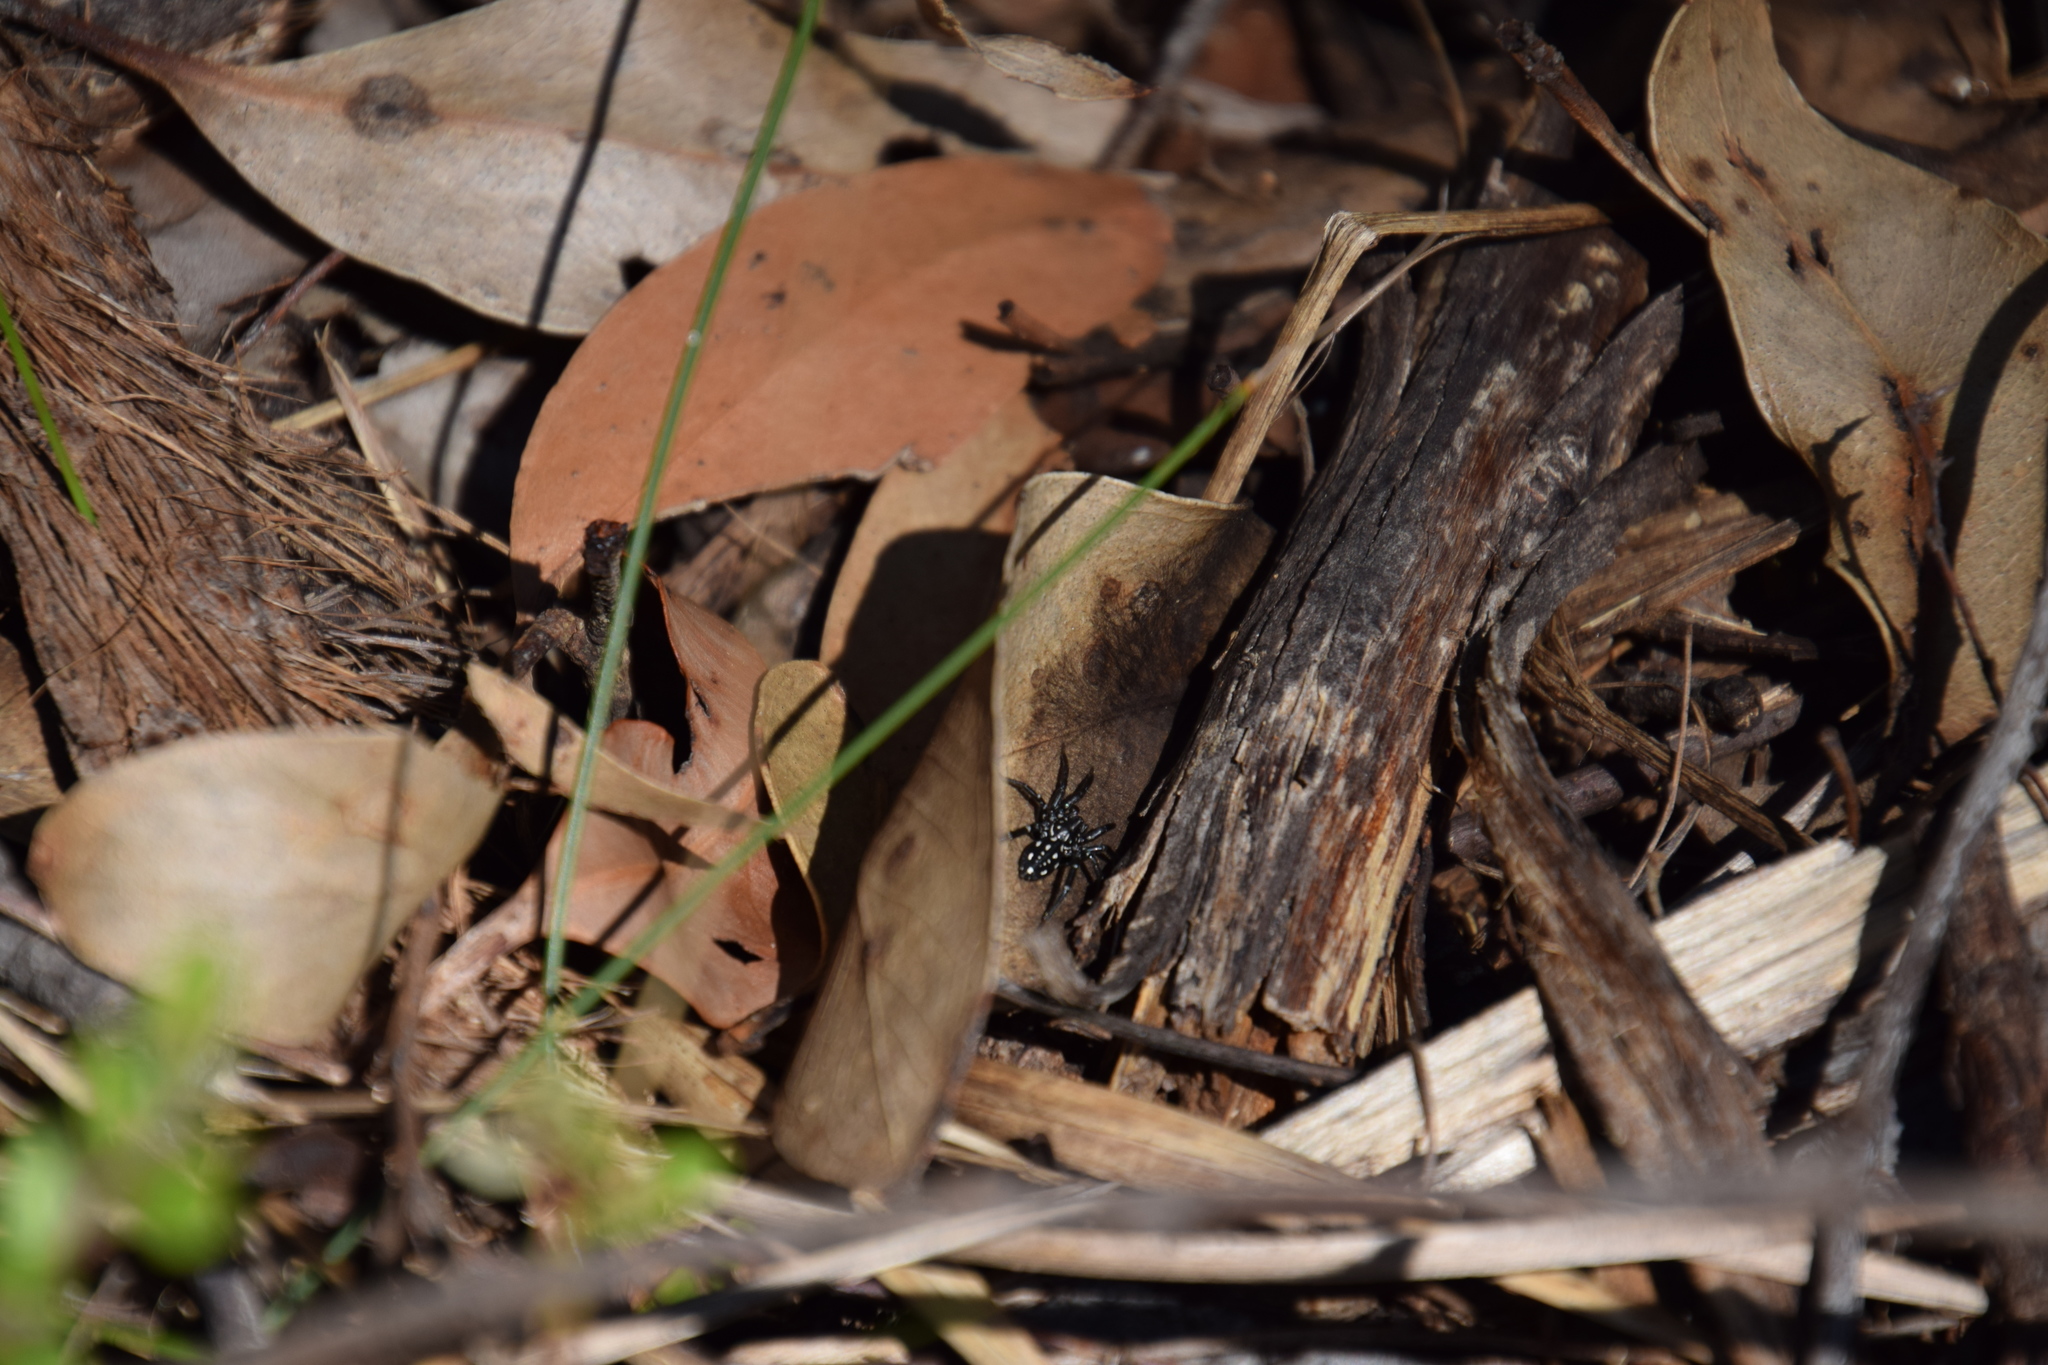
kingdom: Animalia
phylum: Arthropoda
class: Arachnida
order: Araneae
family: Corinnidae
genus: Nyssus
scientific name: Nyssus albopunctatus
